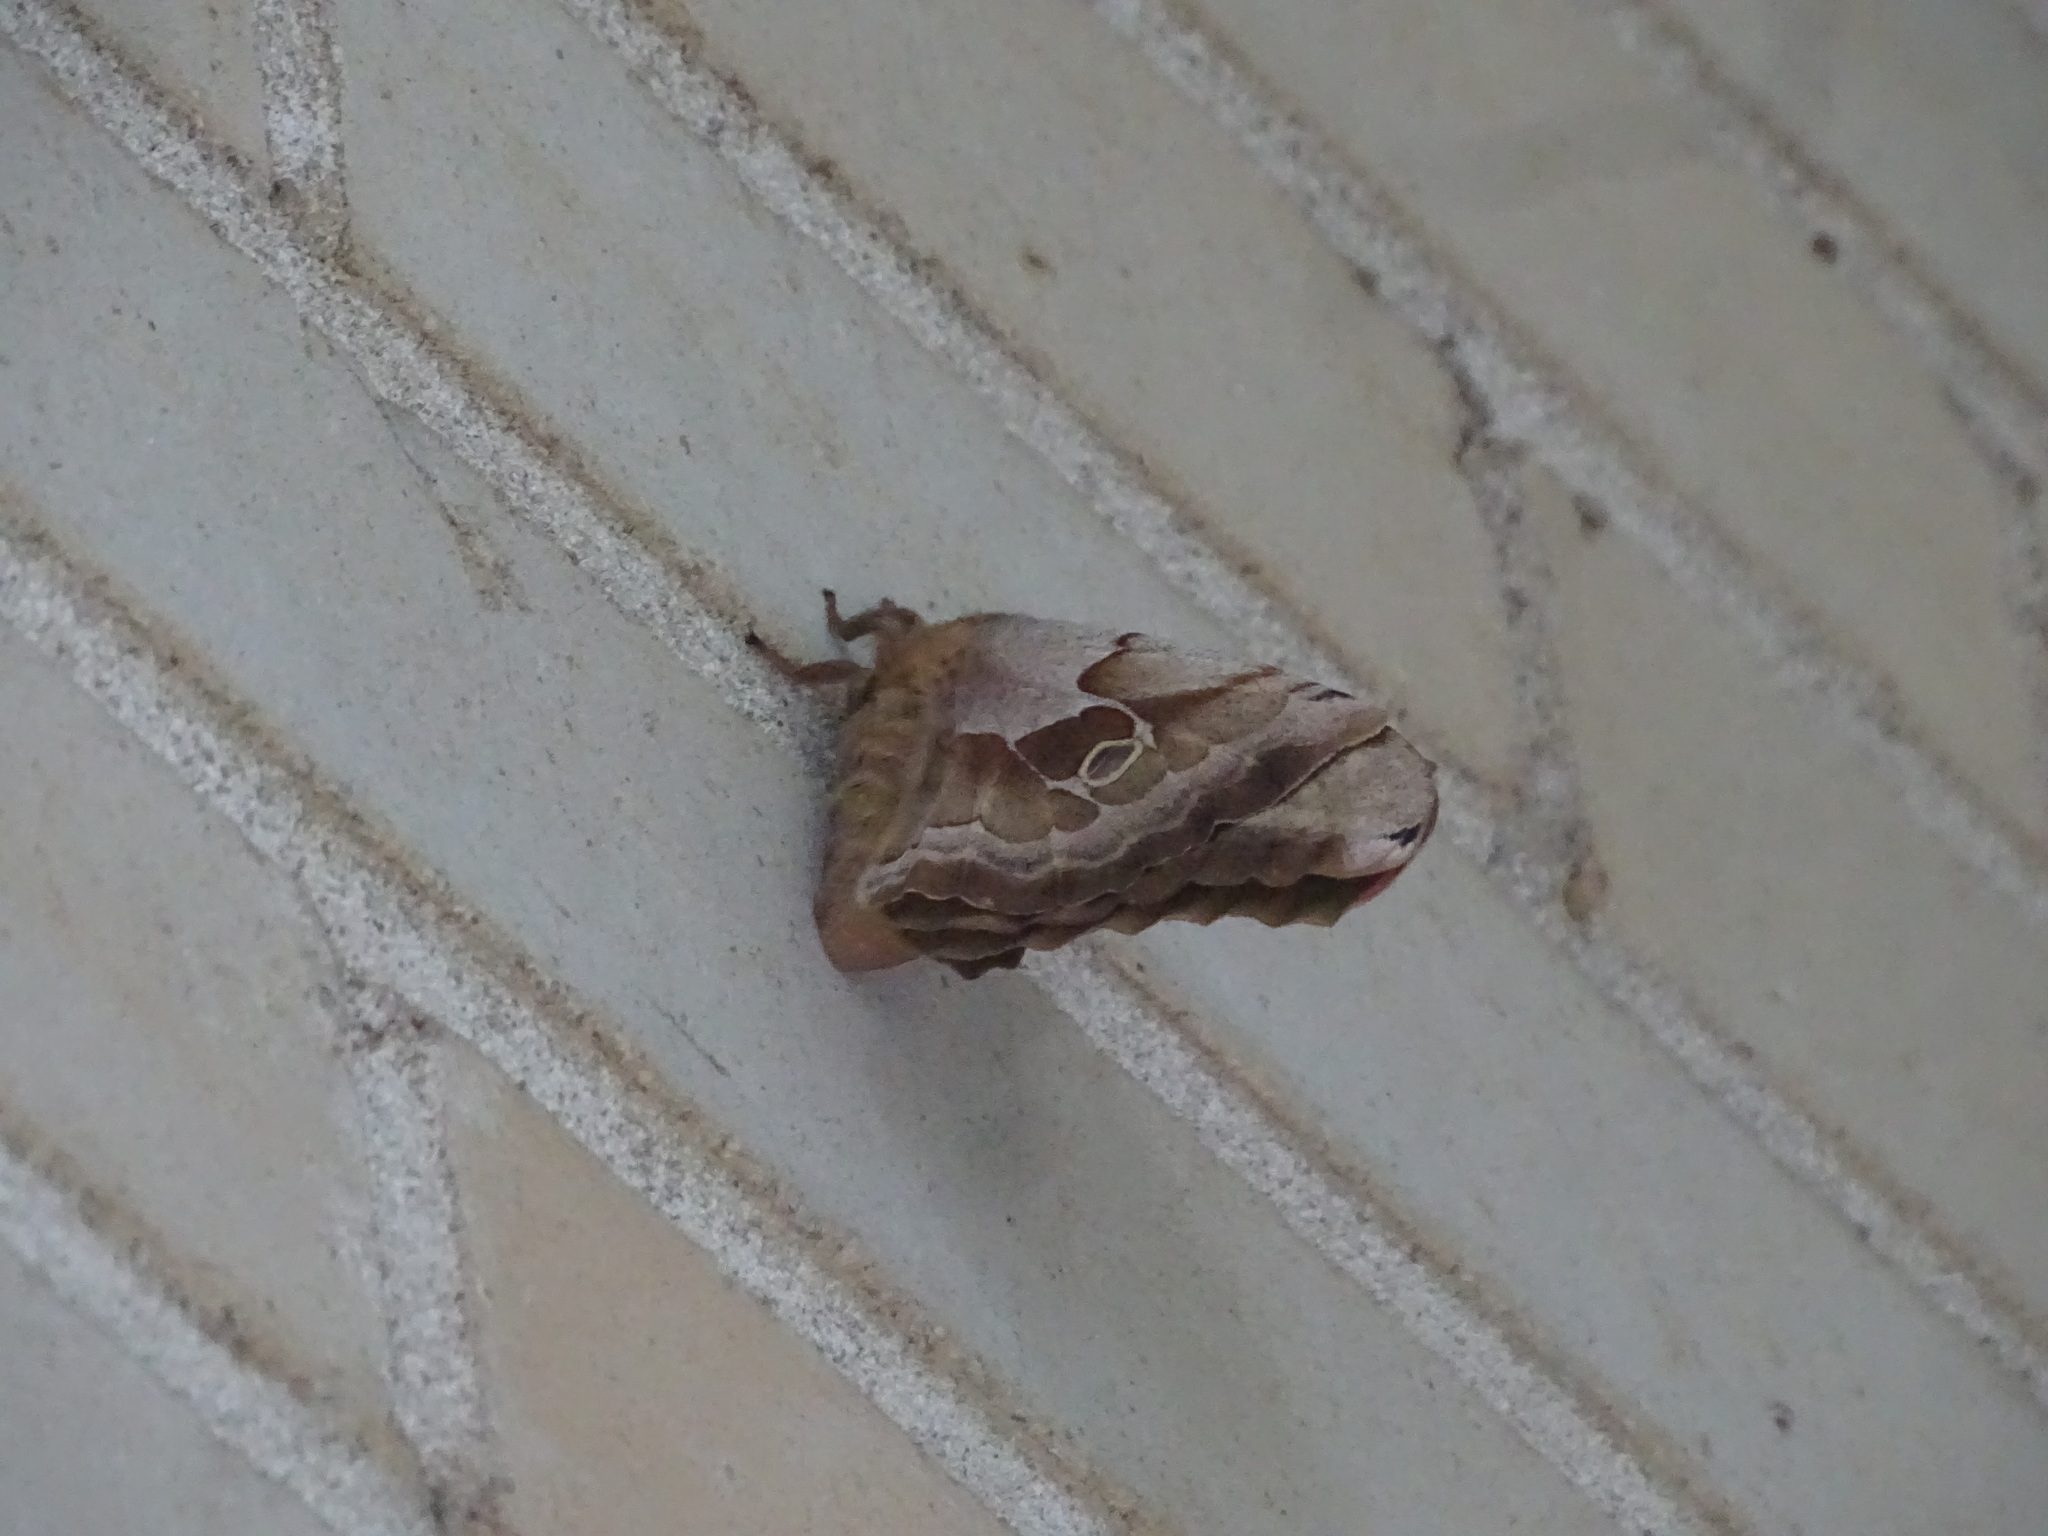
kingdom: Animalia
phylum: Arthropoda
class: Insecta
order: Lepidoptera
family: Saturniidae
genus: Antheraea
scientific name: Antheraea polyphemus
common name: Polyphemus moth
